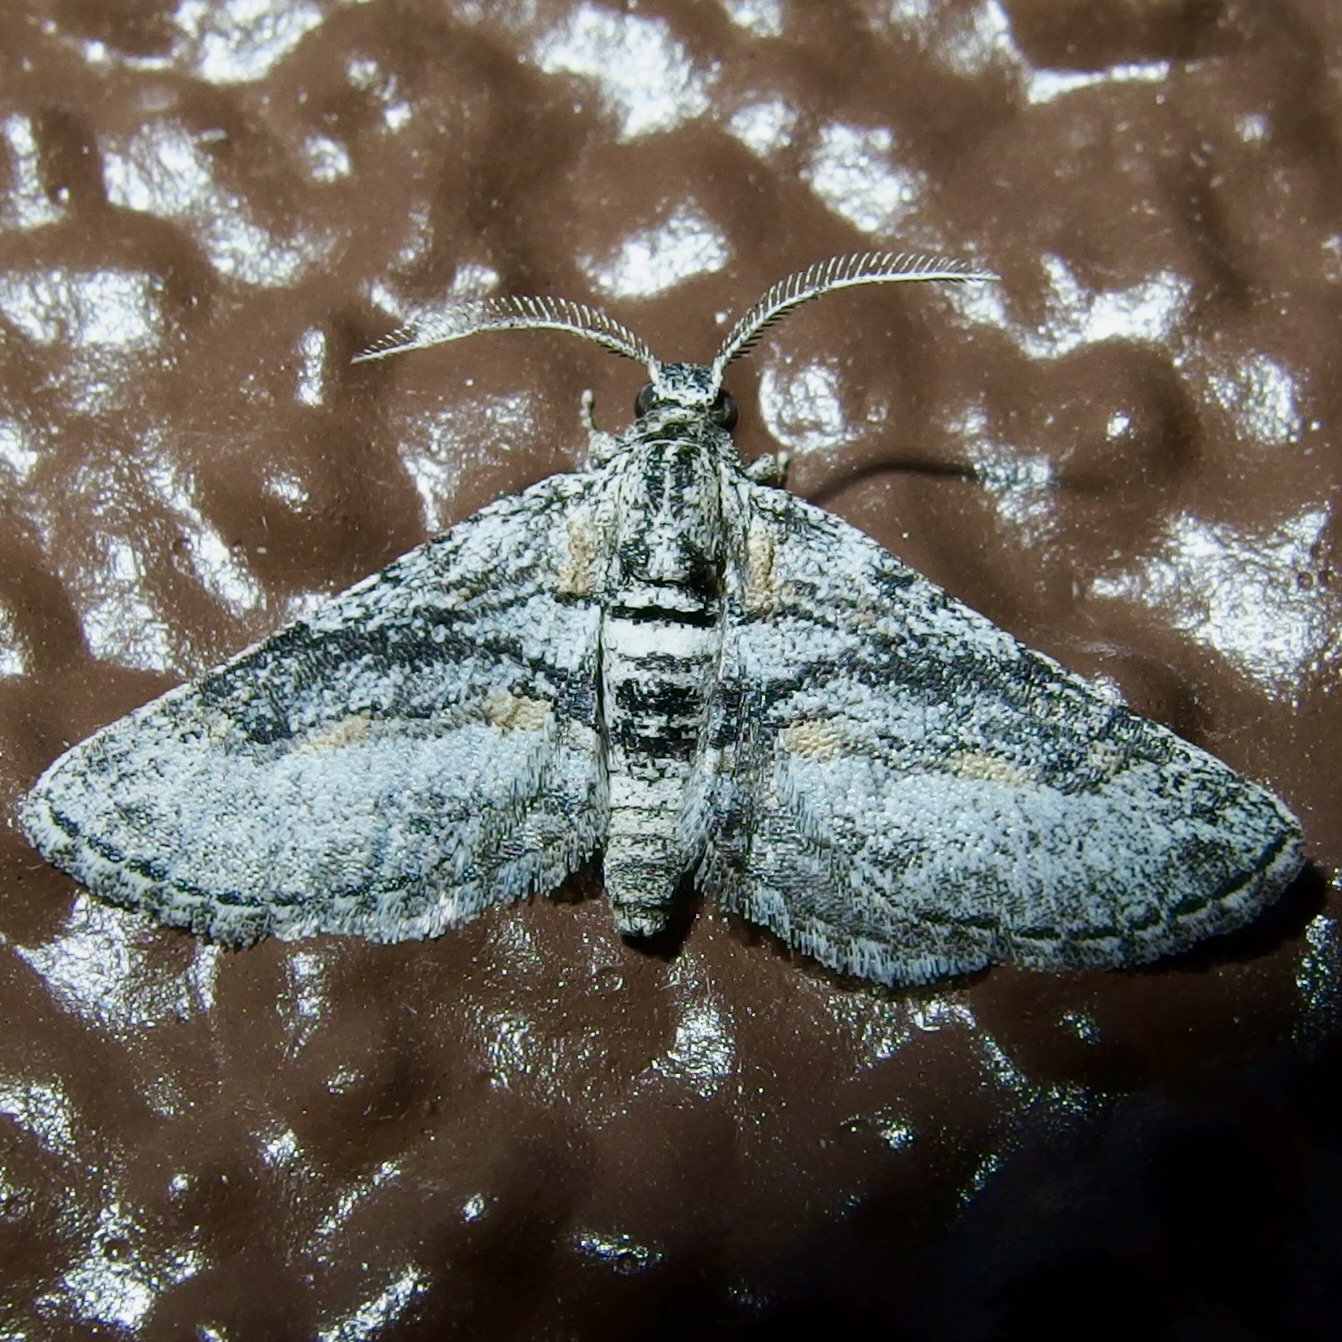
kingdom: Animalia
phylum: Arthropoda
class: Insecta
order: Lepidoptera
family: Geometridae
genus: Eubarnesia
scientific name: Eubarnesia ritaria
